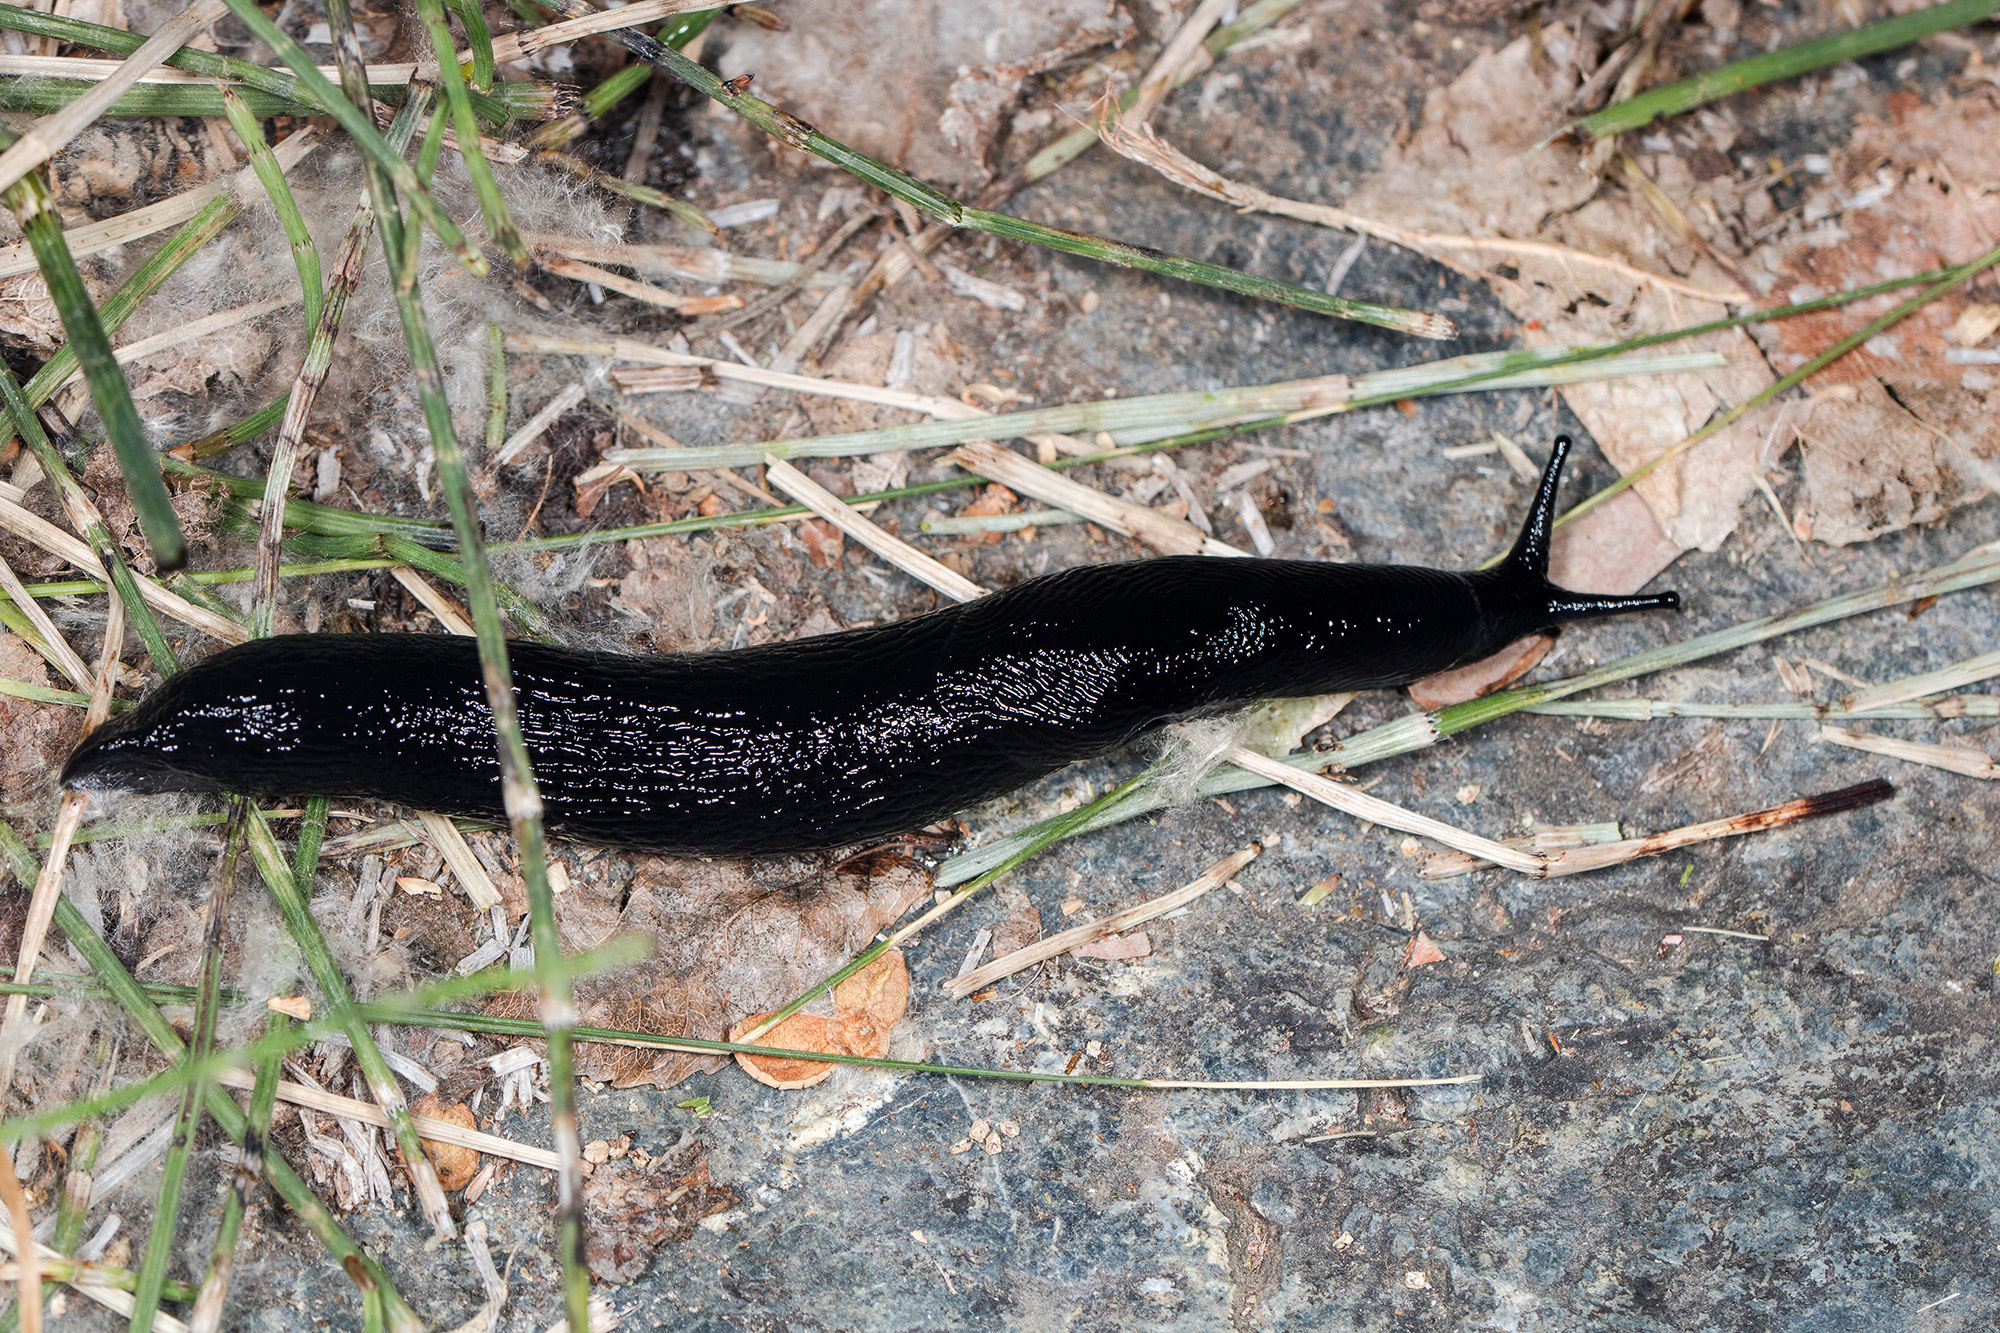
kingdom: Animalia
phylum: Mollusca
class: Gastropoda
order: Stylommatophora
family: Limacidae
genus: Turcomilax
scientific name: Turcomilax turkestanus
